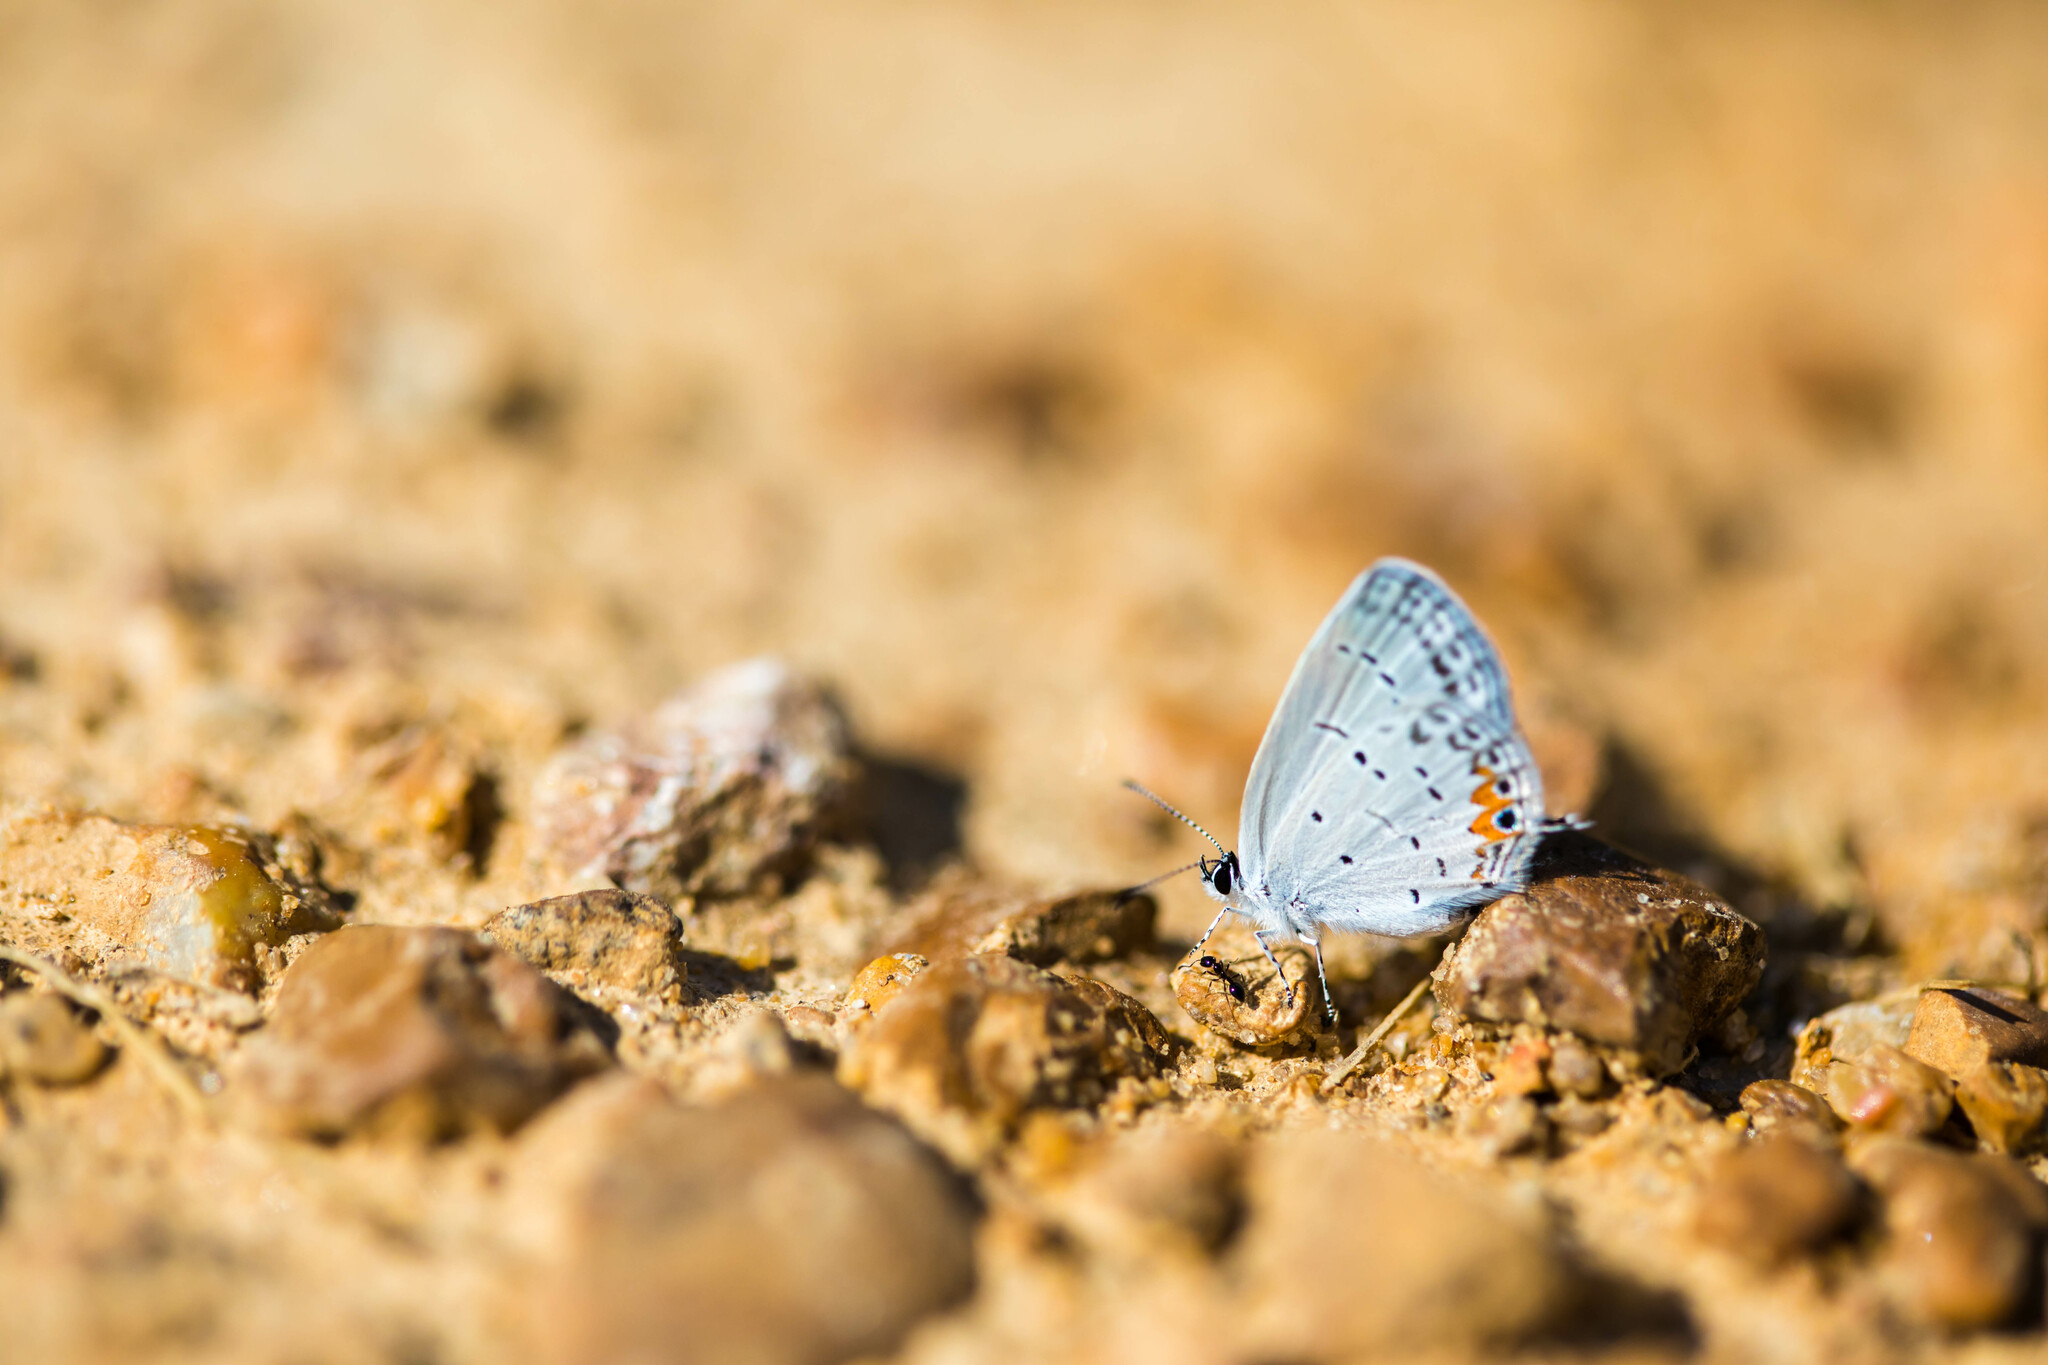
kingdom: Animalia
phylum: Arthropoda
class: Insecta
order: Lepidoptera
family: Lycaenidae
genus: Elkalyce
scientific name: Elkalyce comyntas
